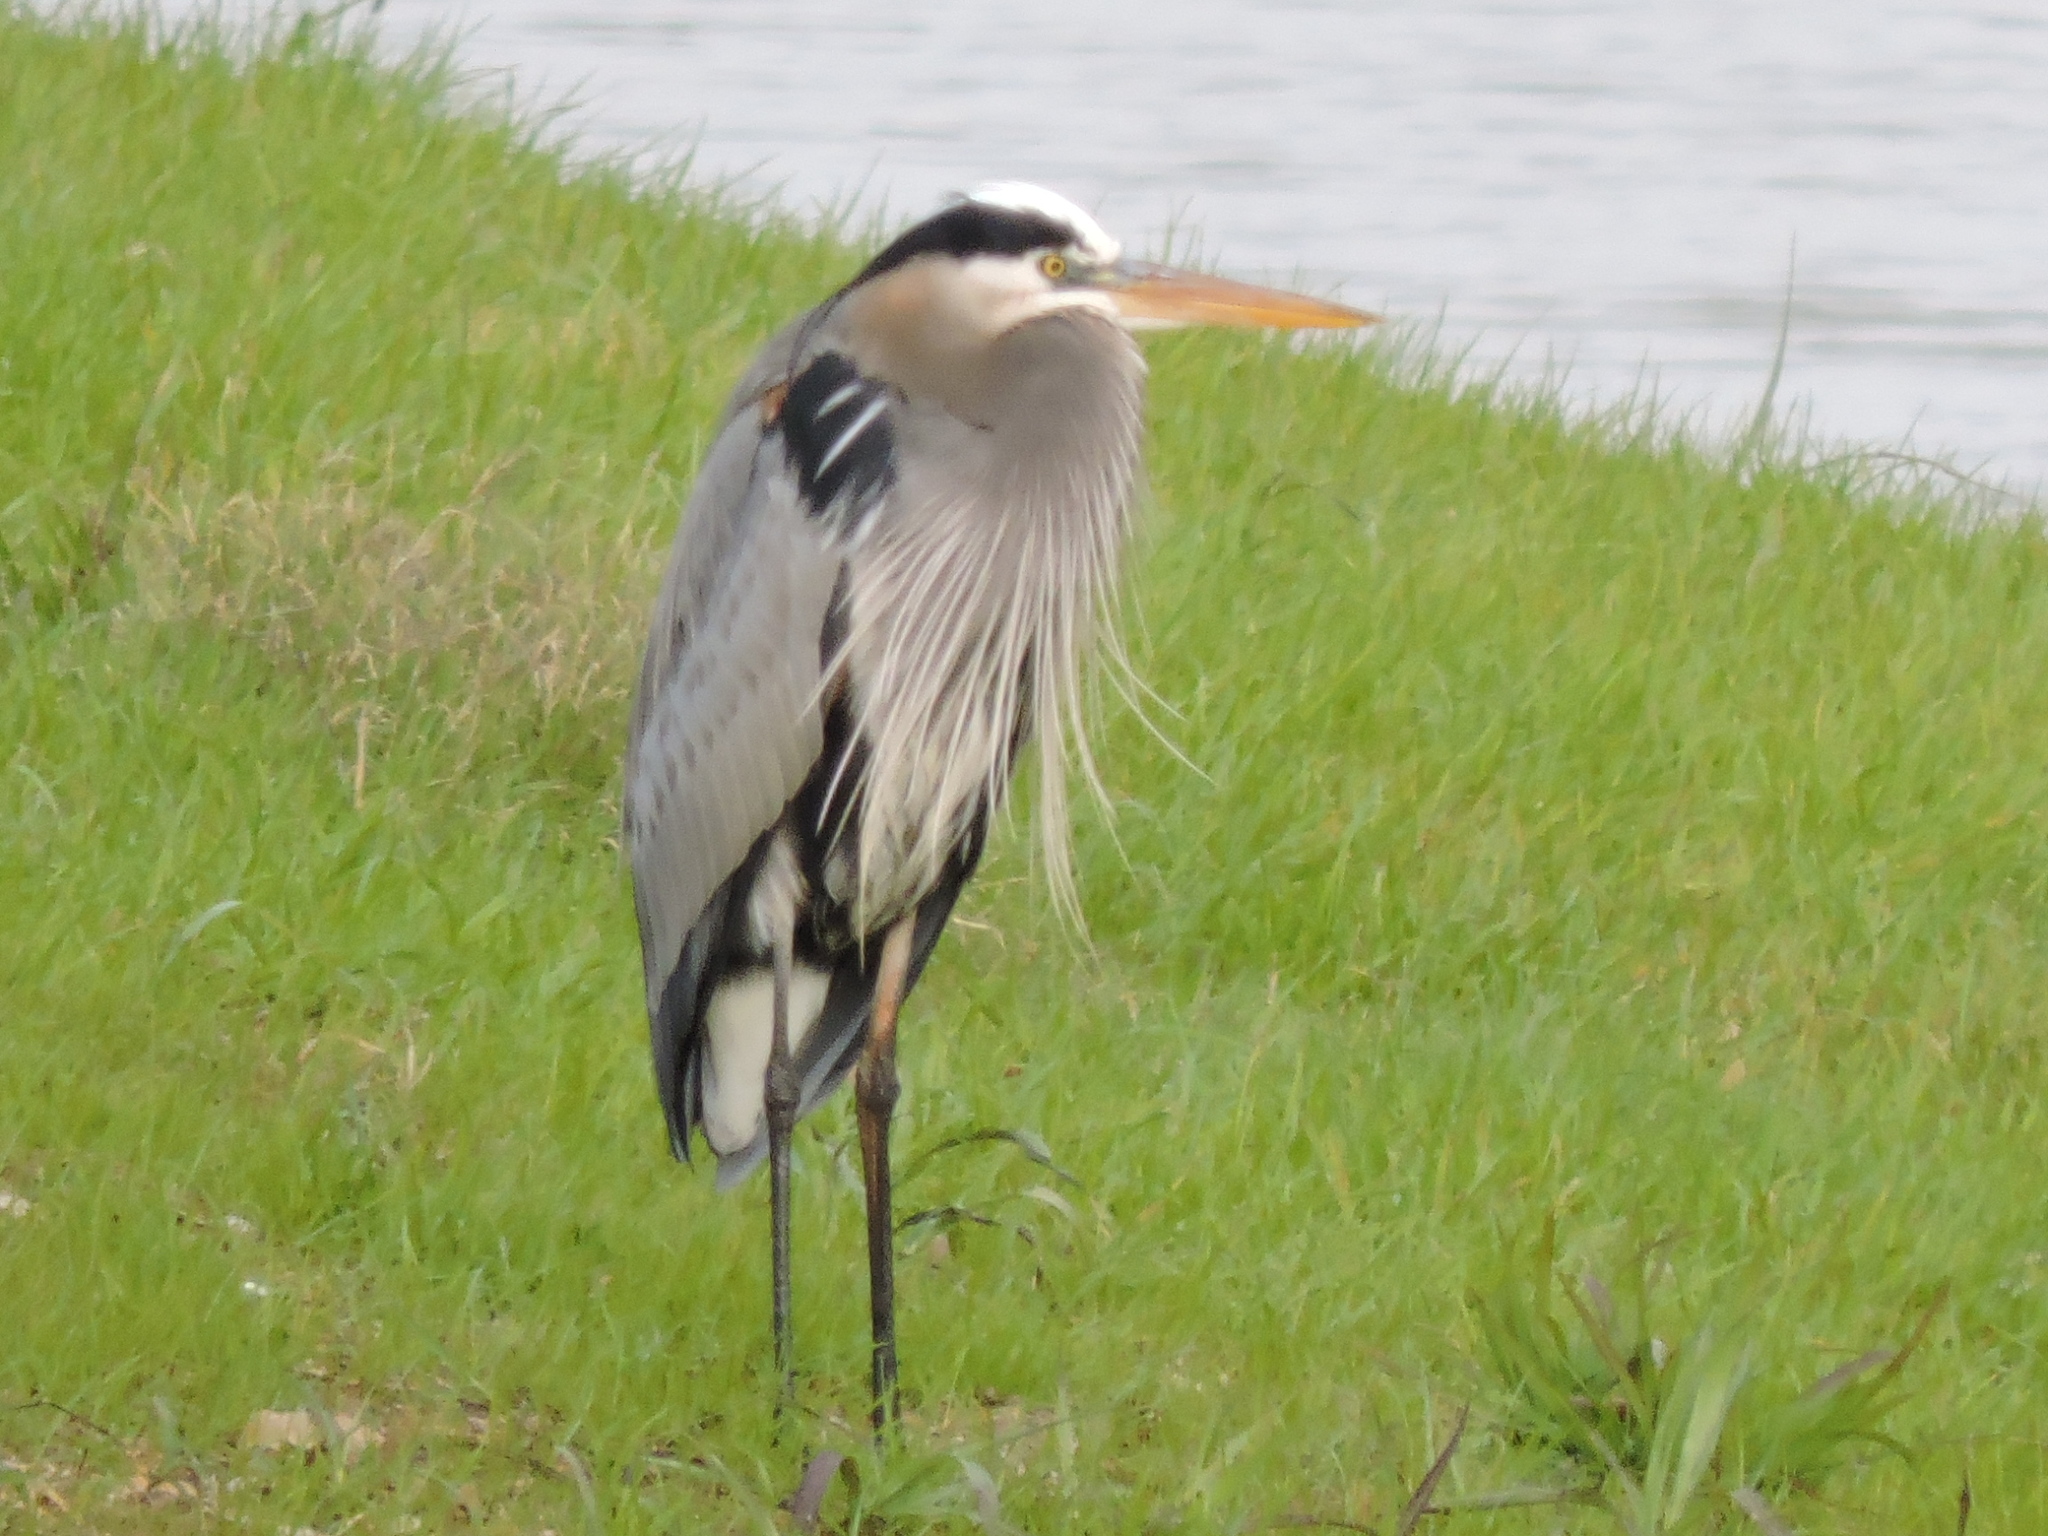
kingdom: Animalia
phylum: Chordata
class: Aves
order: Pelecaniformes
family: Ardeidae
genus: Ardea
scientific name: Ardea herodias
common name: Great blue heron
